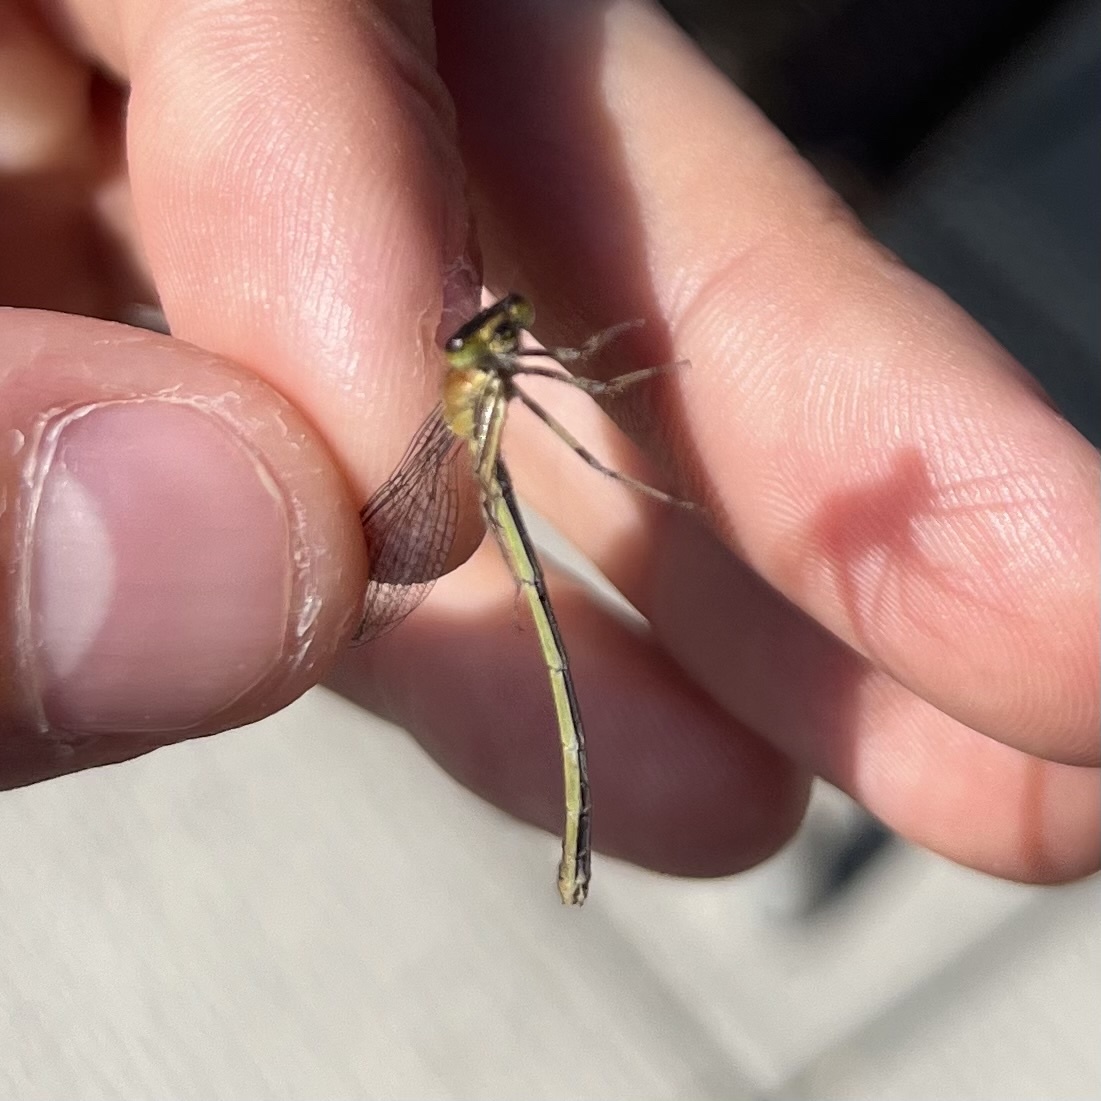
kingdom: Animalia
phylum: Arthropoda
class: Insecta
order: Odonata
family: Coenagrionidae
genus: Ischnura
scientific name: Ischnura elegans
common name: Blue-tailed damselfly
